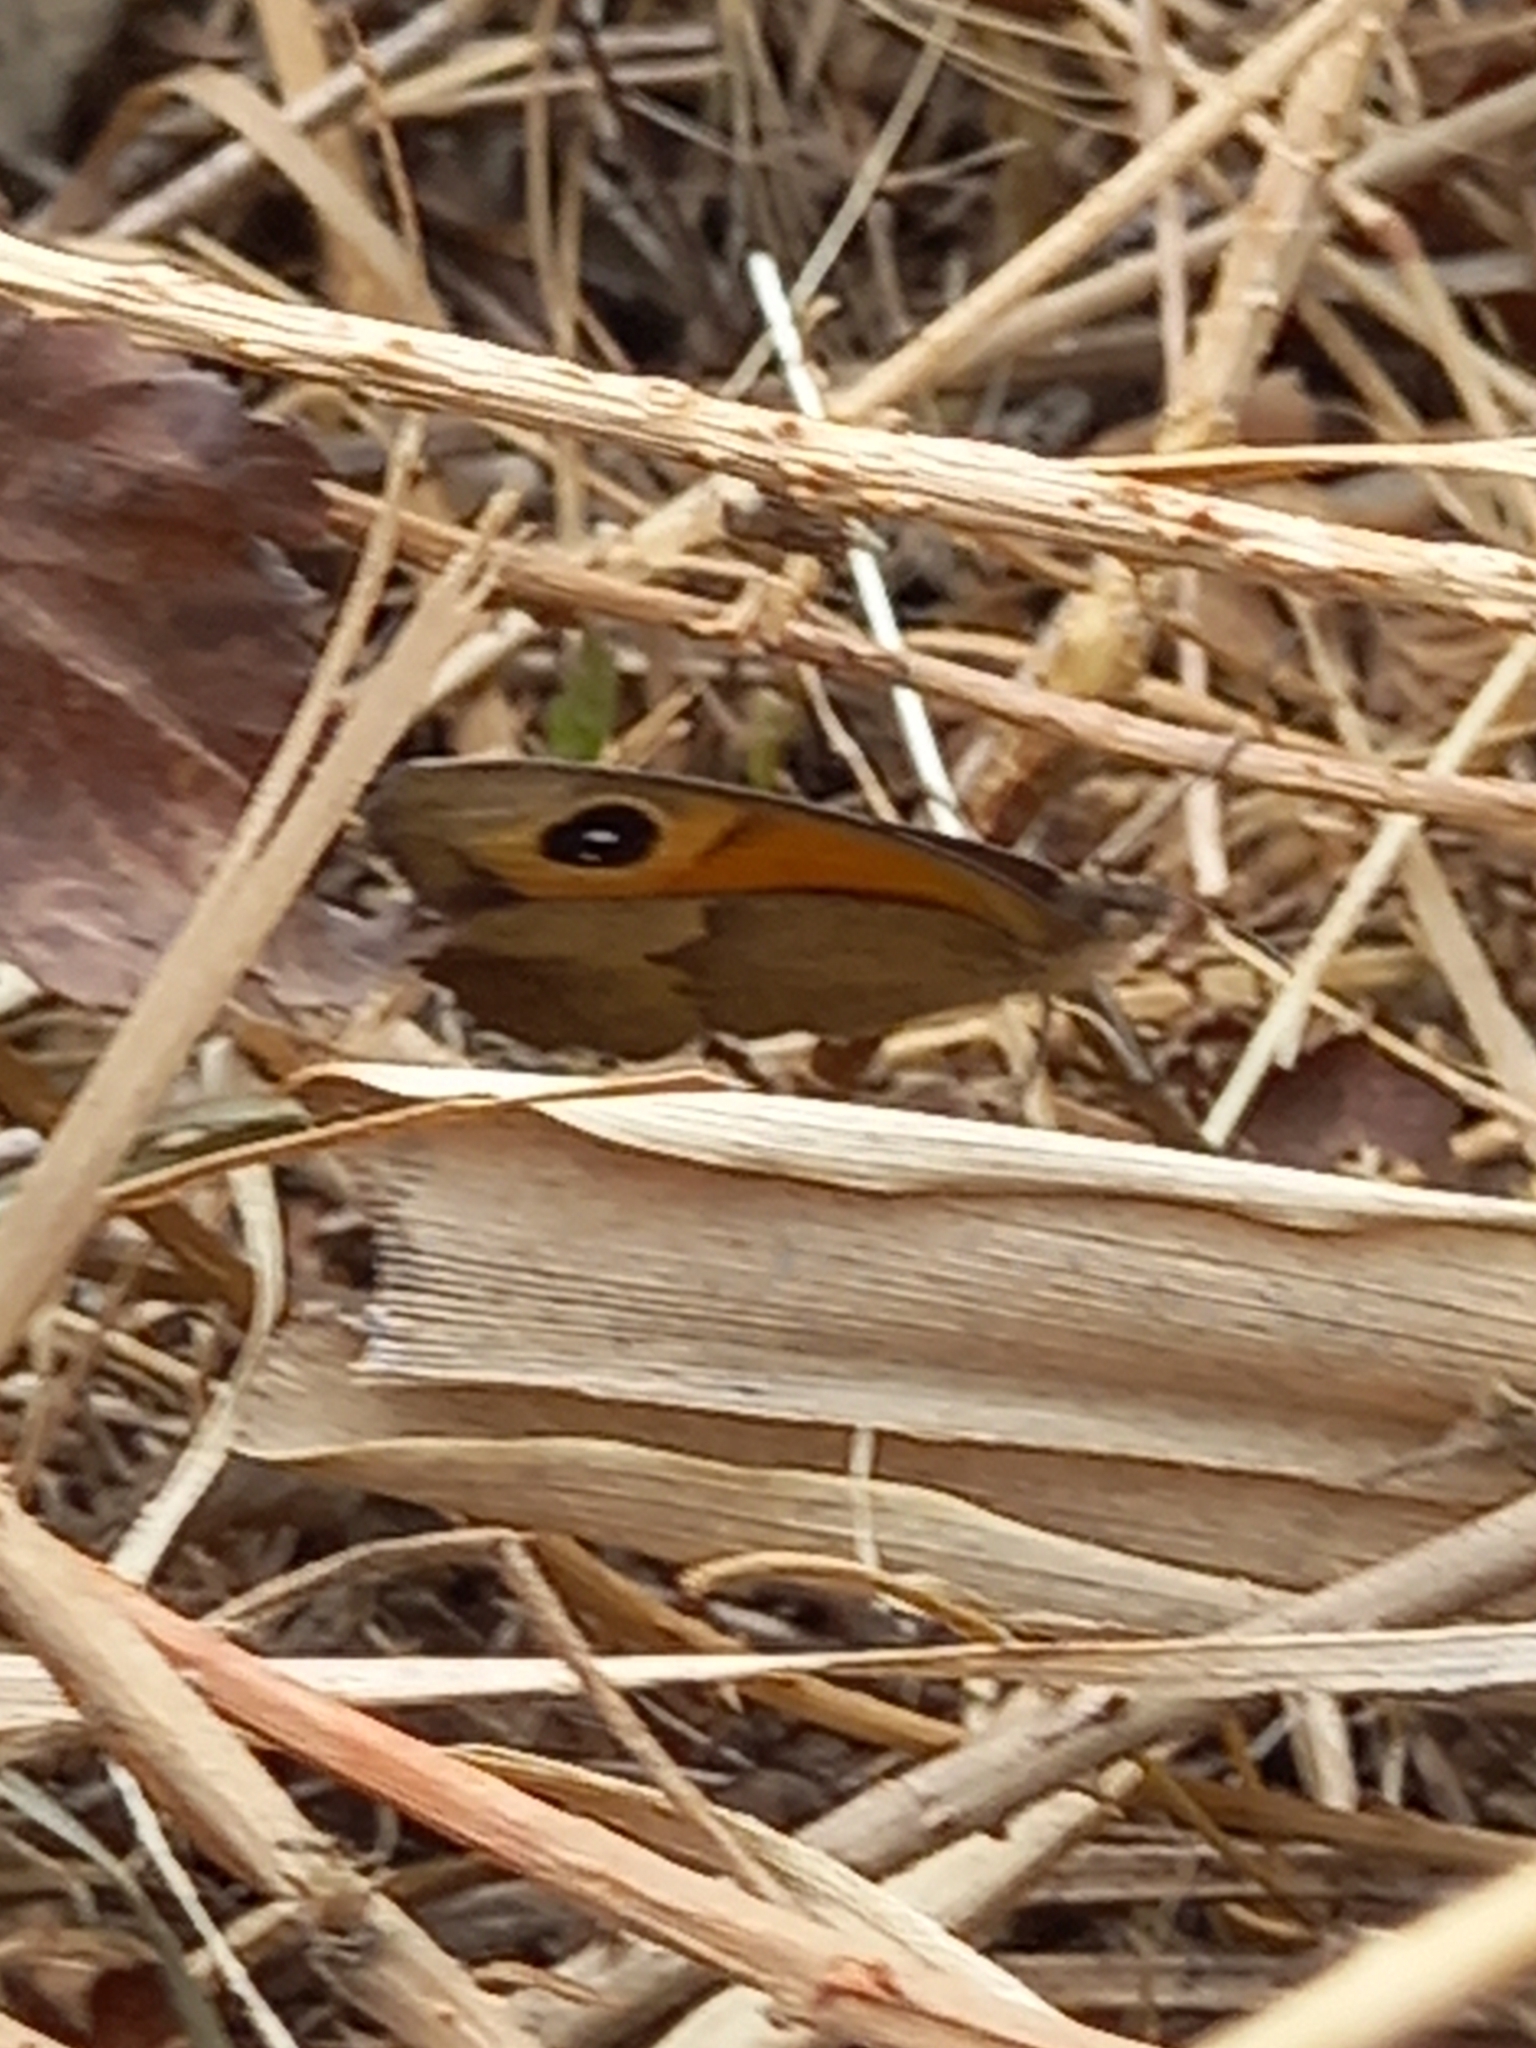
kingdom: Animalia
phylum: Arthropoda
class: Insecta
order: Lepidoptera
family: Nymphalidae
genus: Maniola
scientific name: Maniola jurtina
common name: Meadow brown
